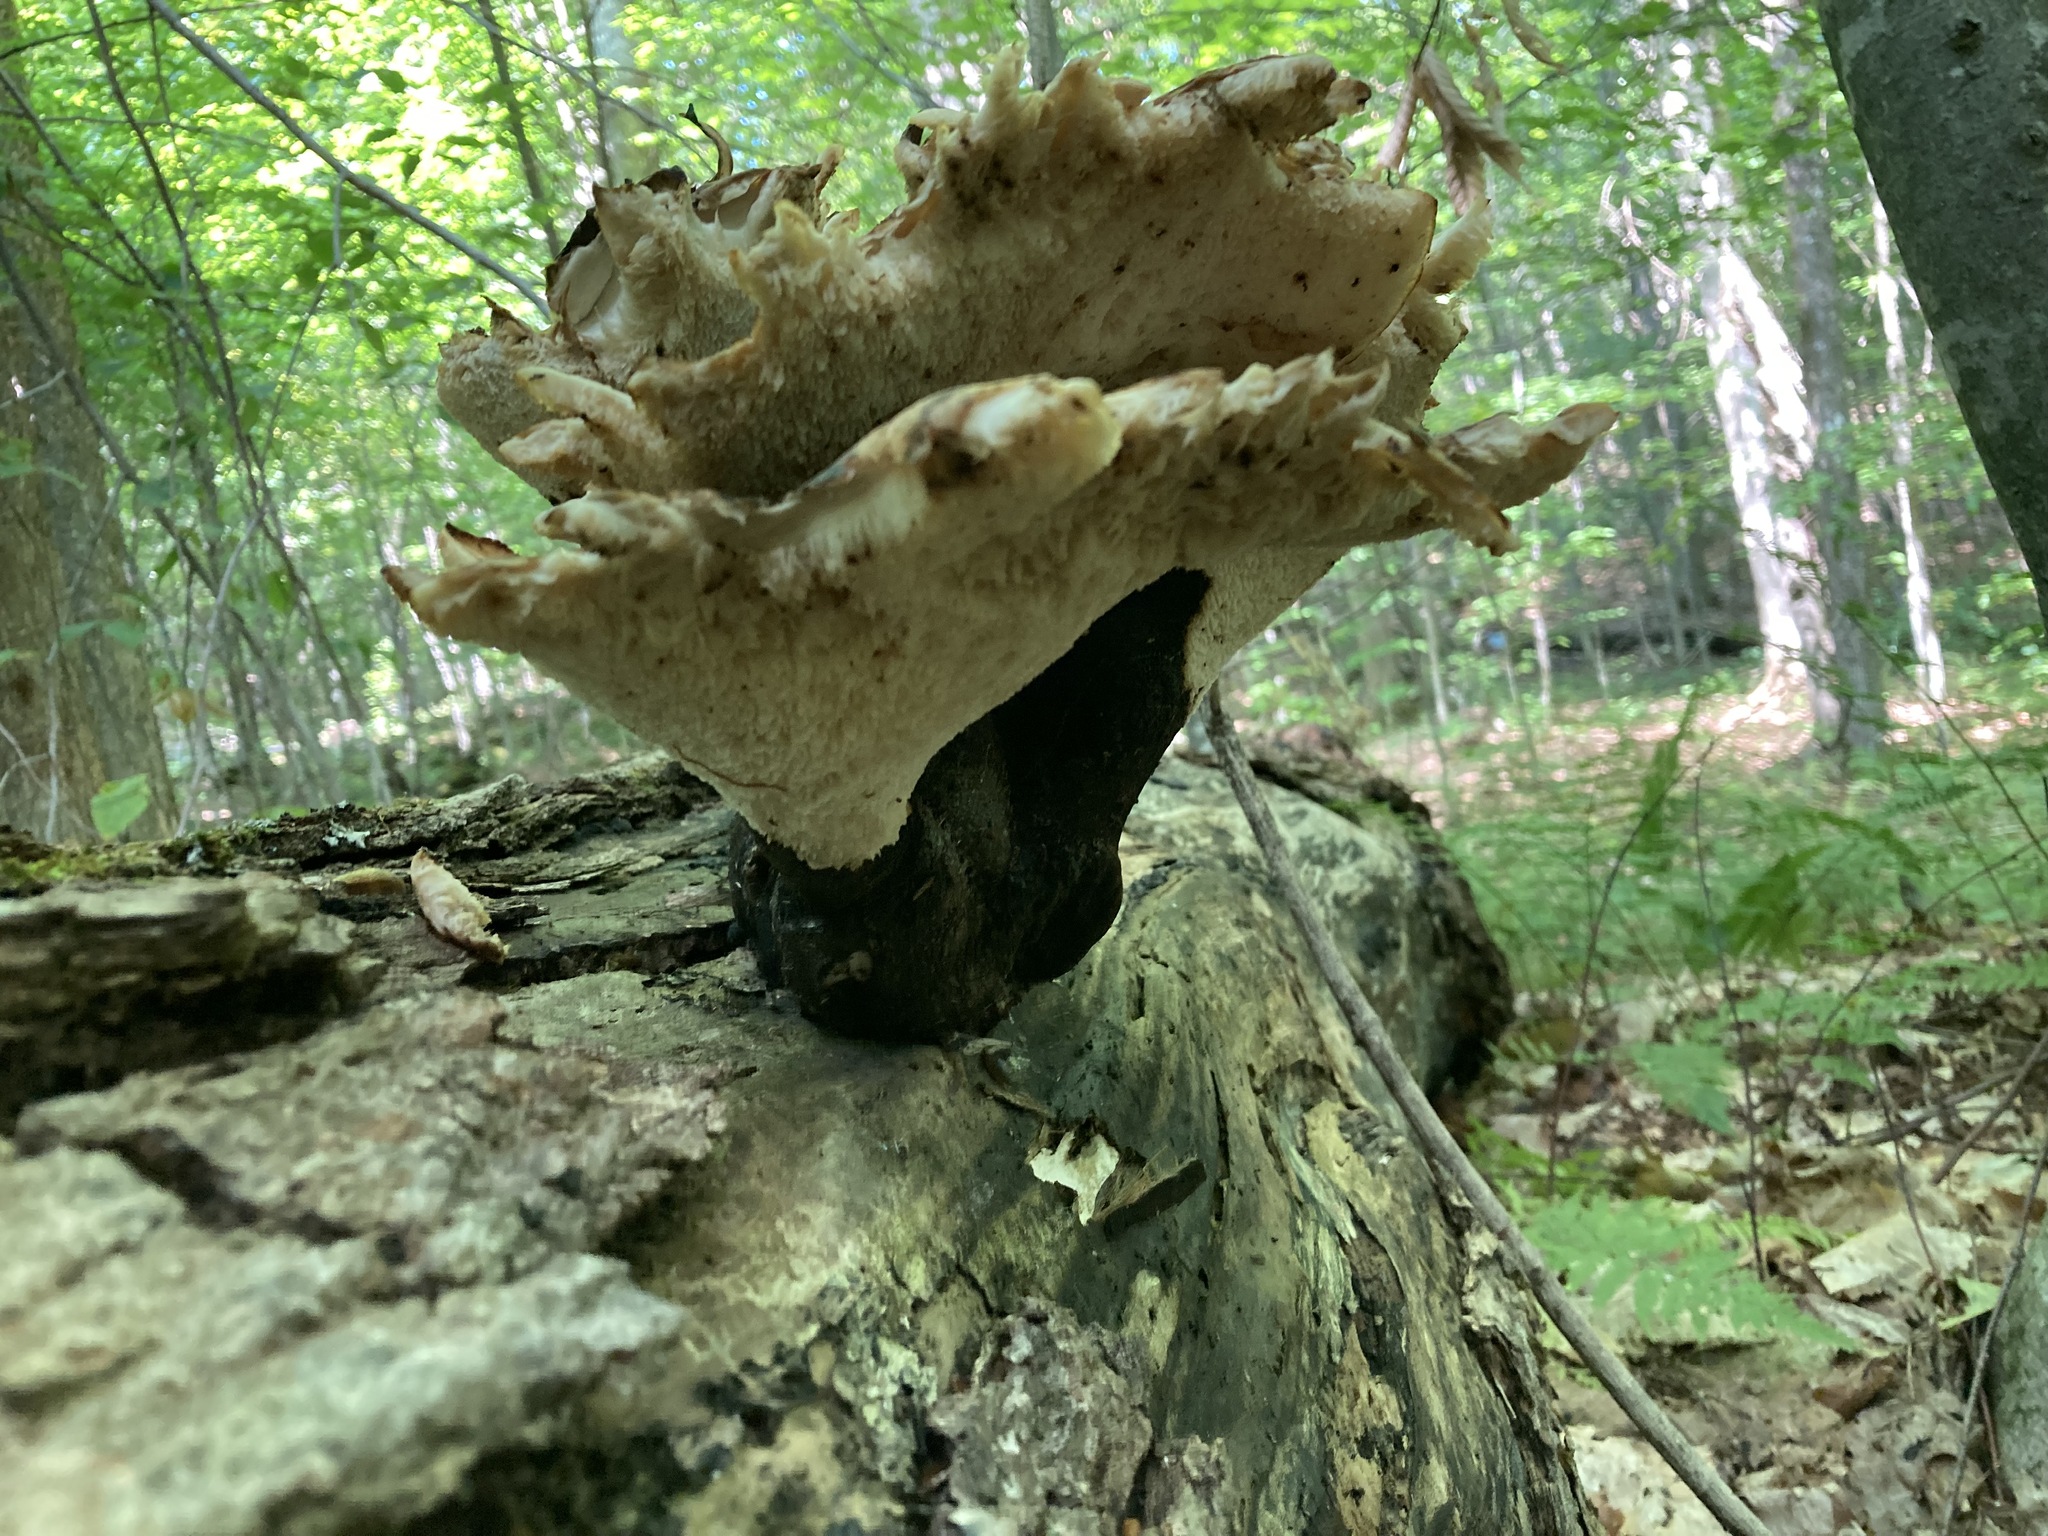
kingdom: Fungi
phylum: Basidiomycota
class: Agaricomycetes
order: Polyporales
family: Polyporaceae
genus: Picipes
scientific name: Picipes badius
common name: Bay polypore
